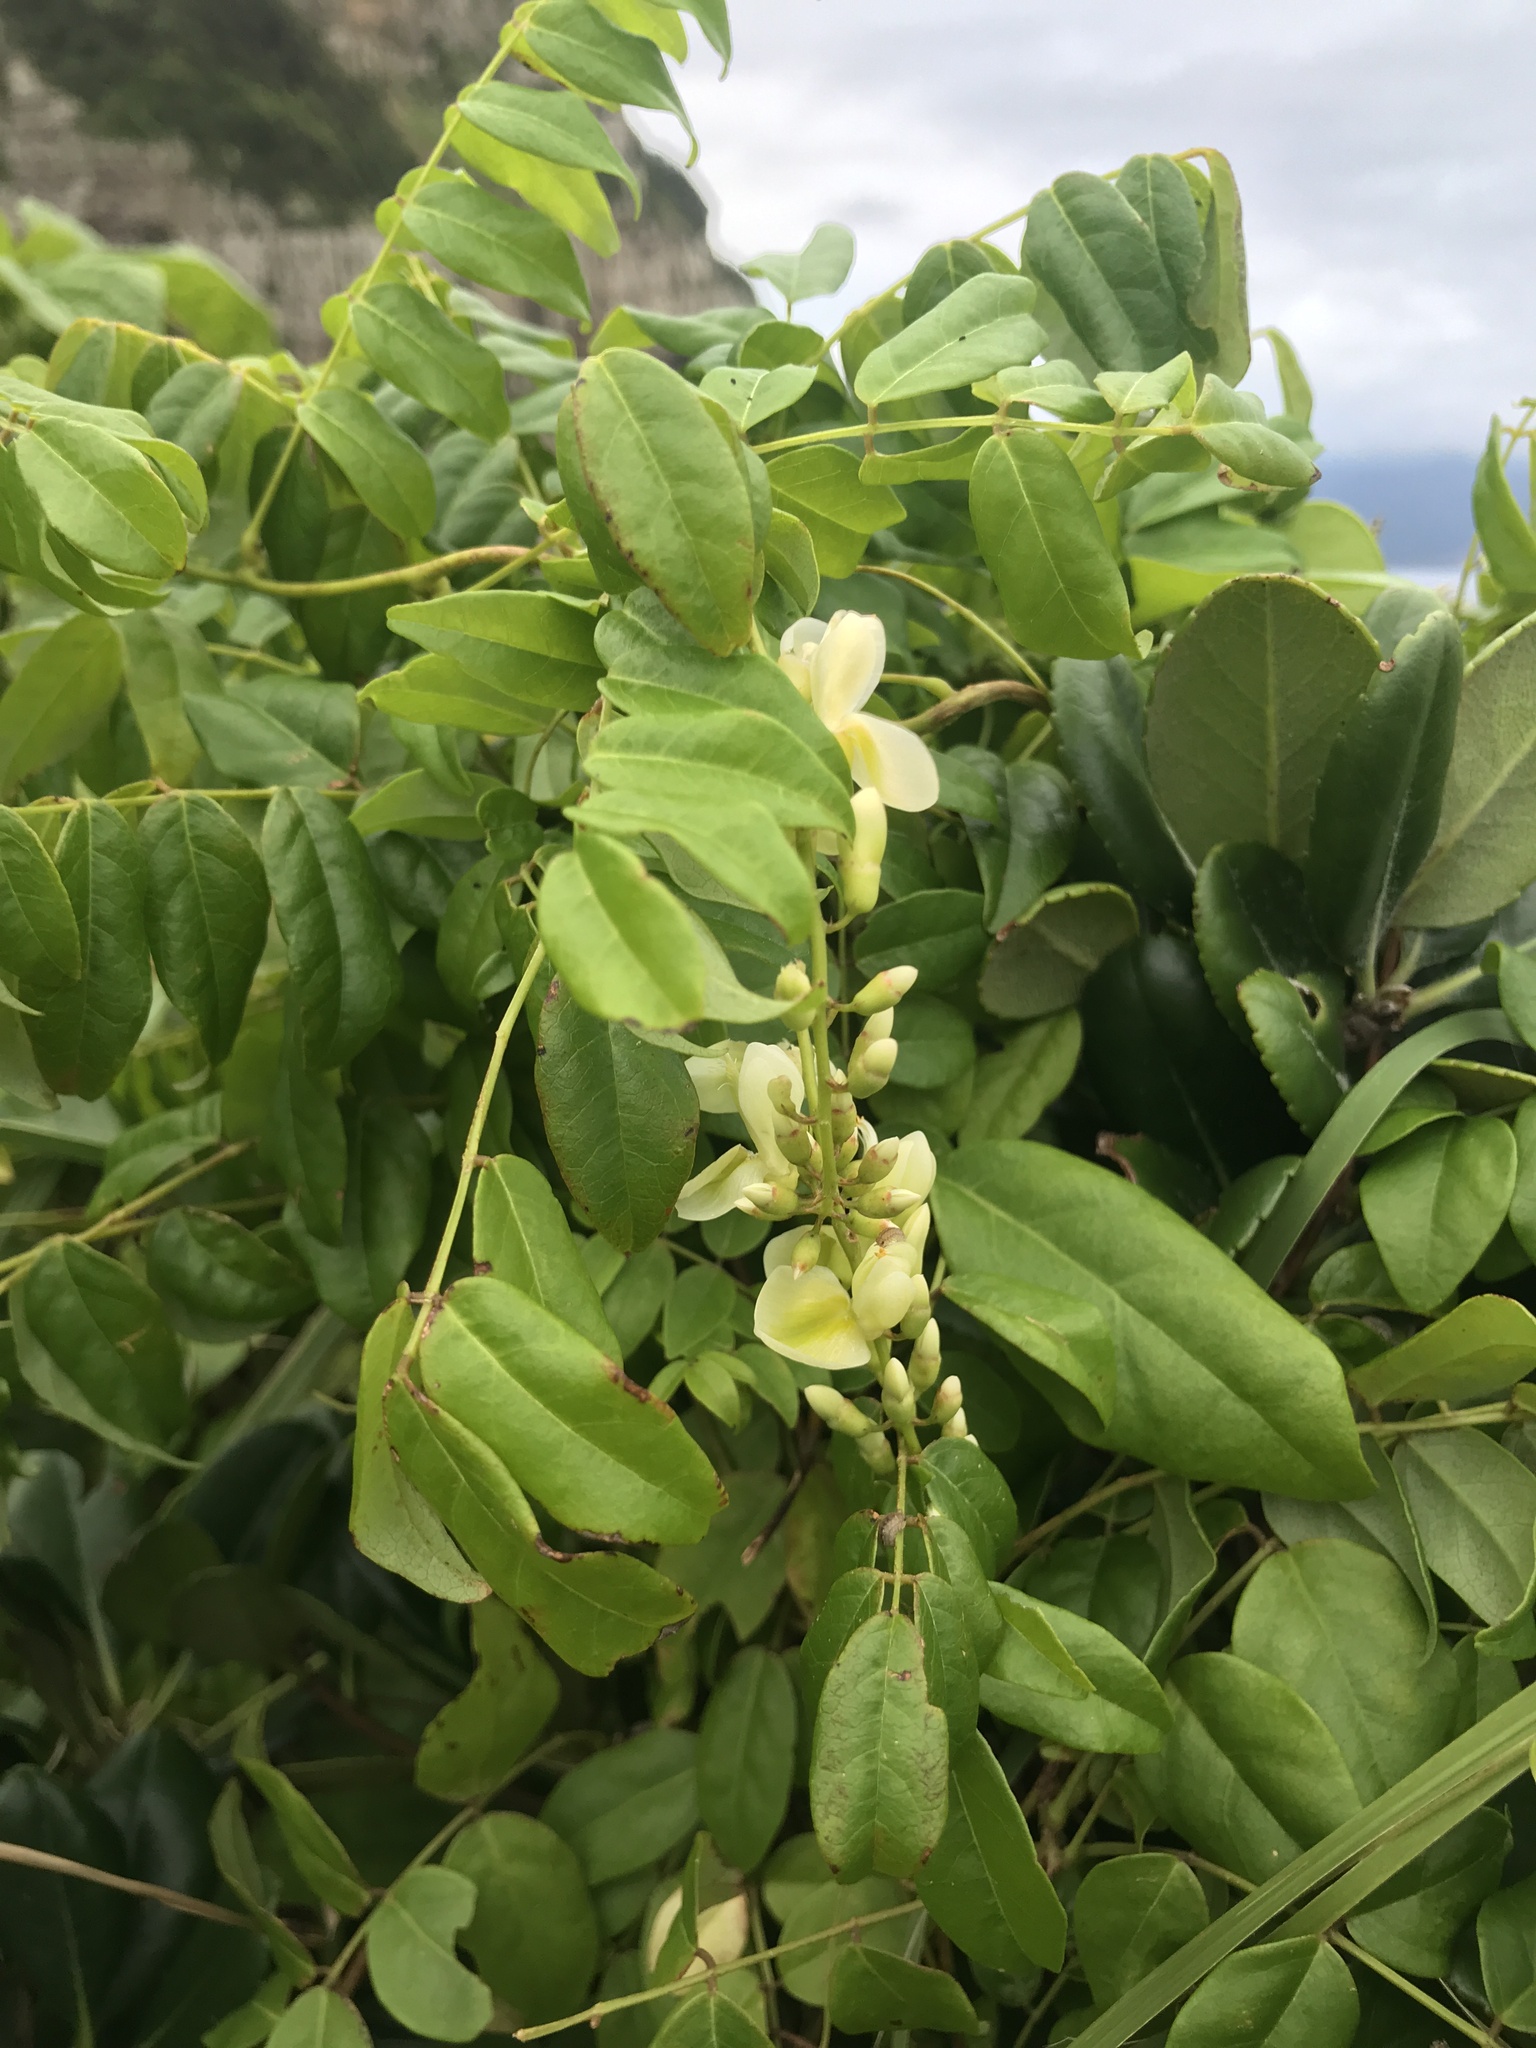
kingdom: Plantae
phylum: Tracheophyta
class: Magnoliopsida
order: Fabales
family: Fabaceae
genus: Wisteriopsis
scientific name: Wisteriopsis japonica
